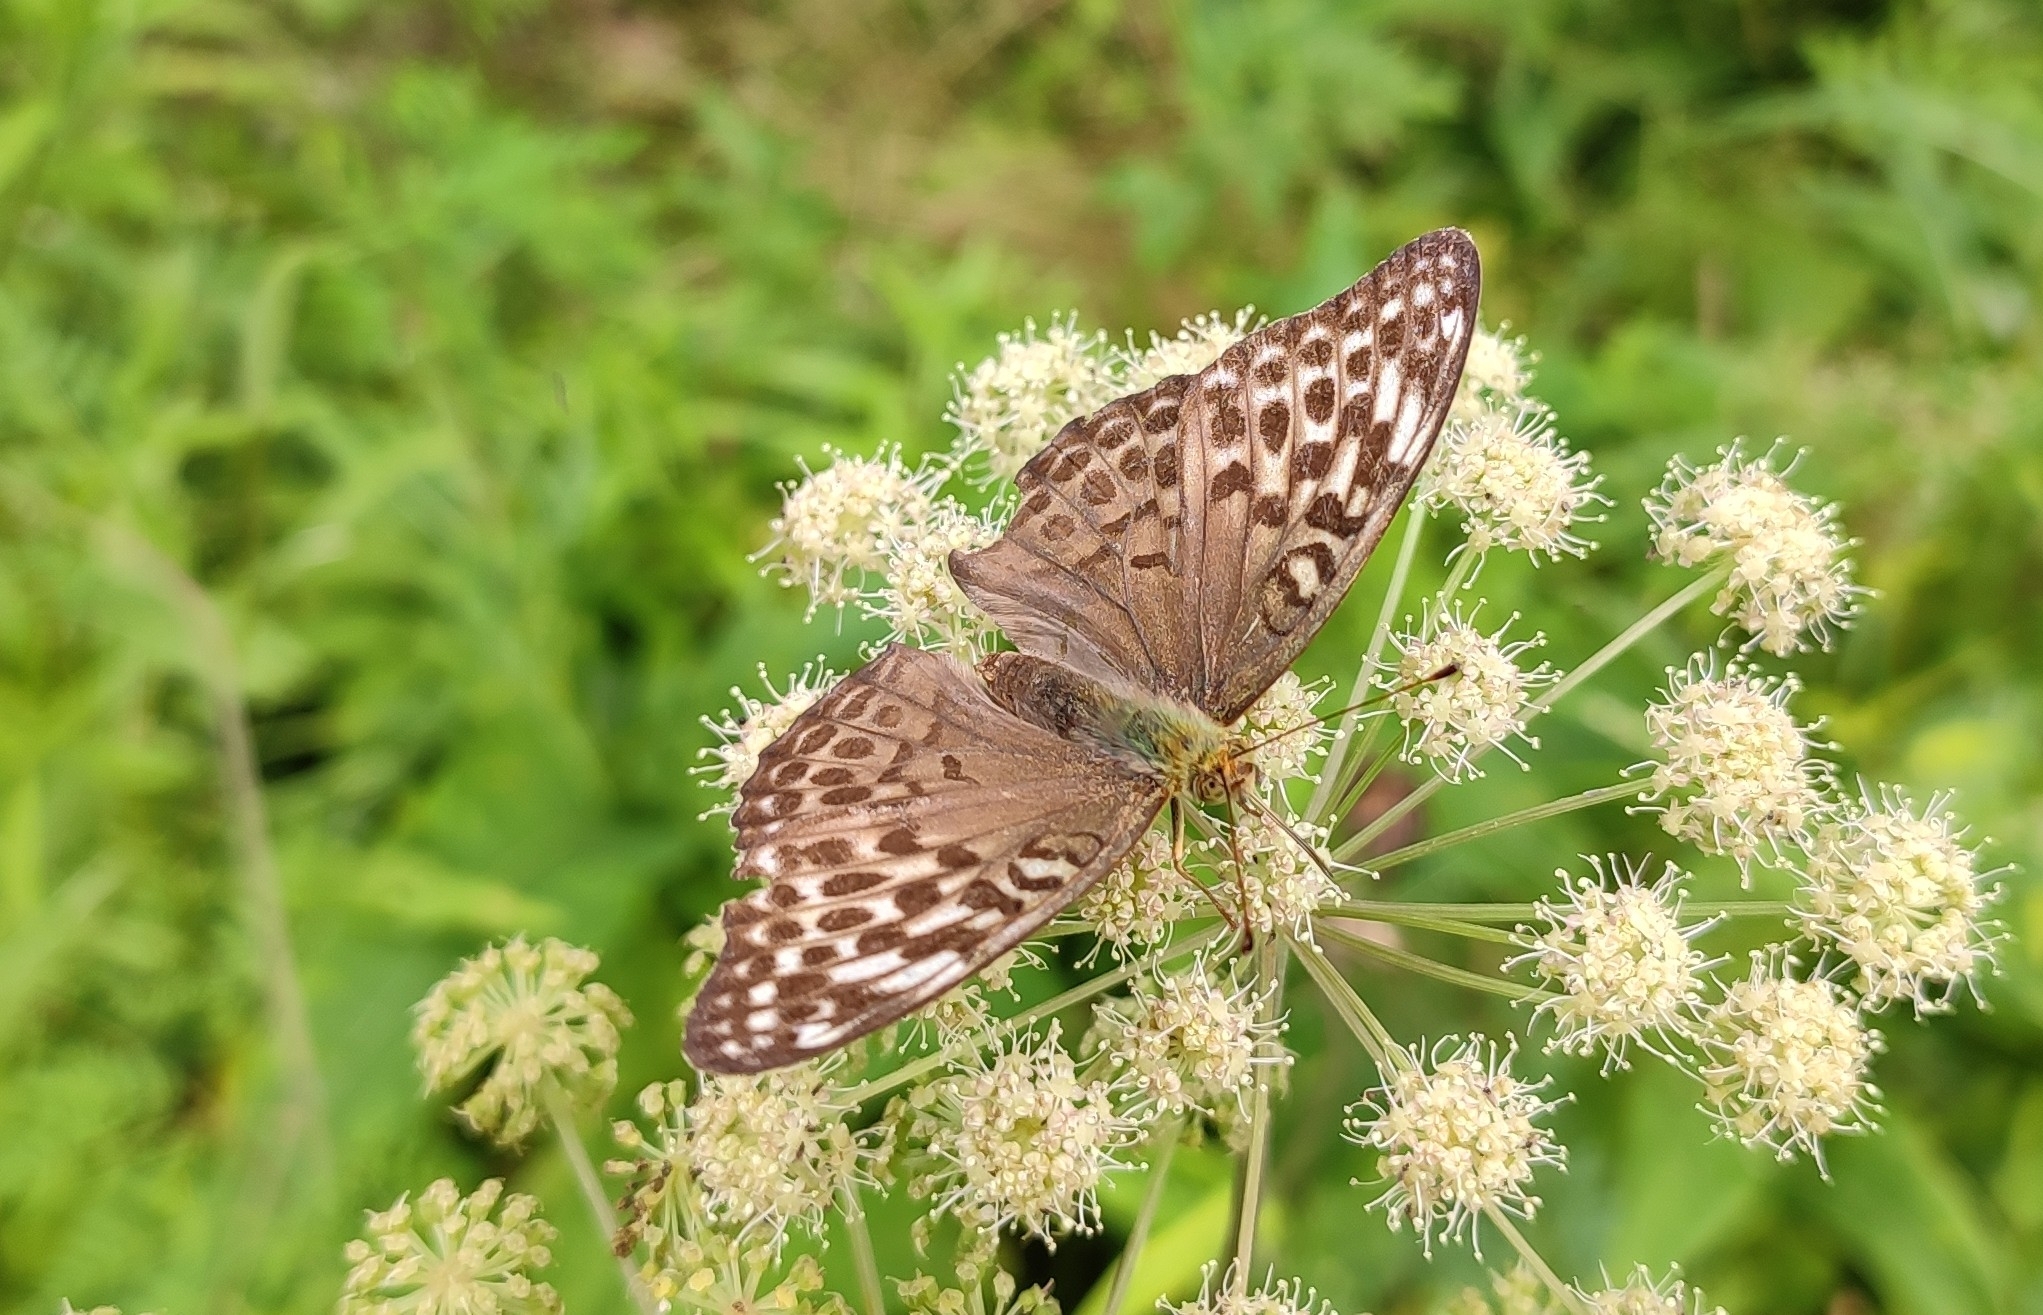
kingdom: Animalia
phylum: Arthropoda
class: Insecta
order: Lepidoptera
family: Nymphalidae
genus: Argynnis
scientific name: Argynnis paphia
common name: Silver-washed fritillary
